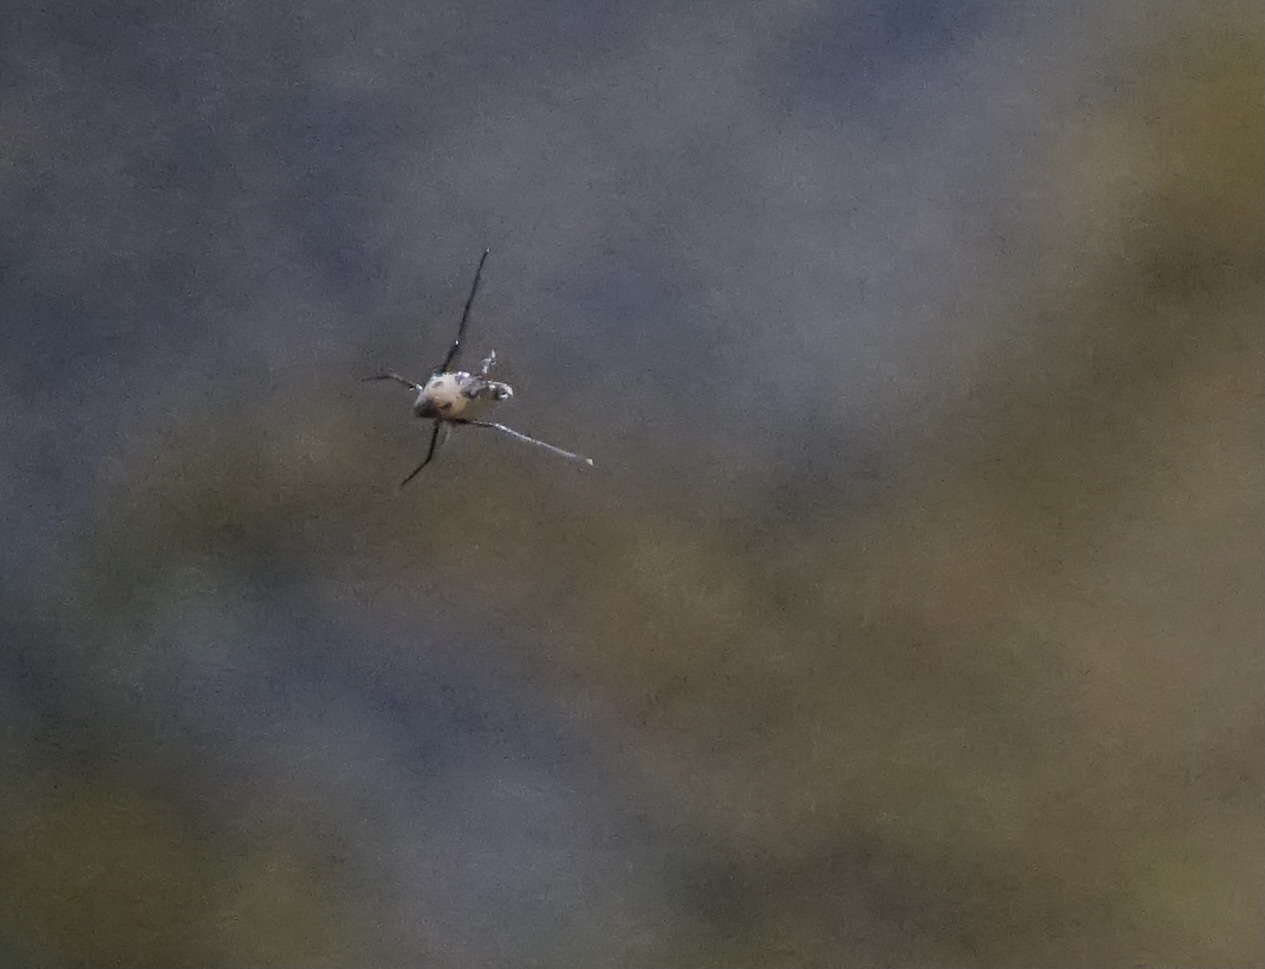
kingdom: Animalia
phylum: Arthropoda
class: Insecta
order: Hemiptera
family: Gerridae
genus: Metrocoris
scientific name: Metrocoris histrio
